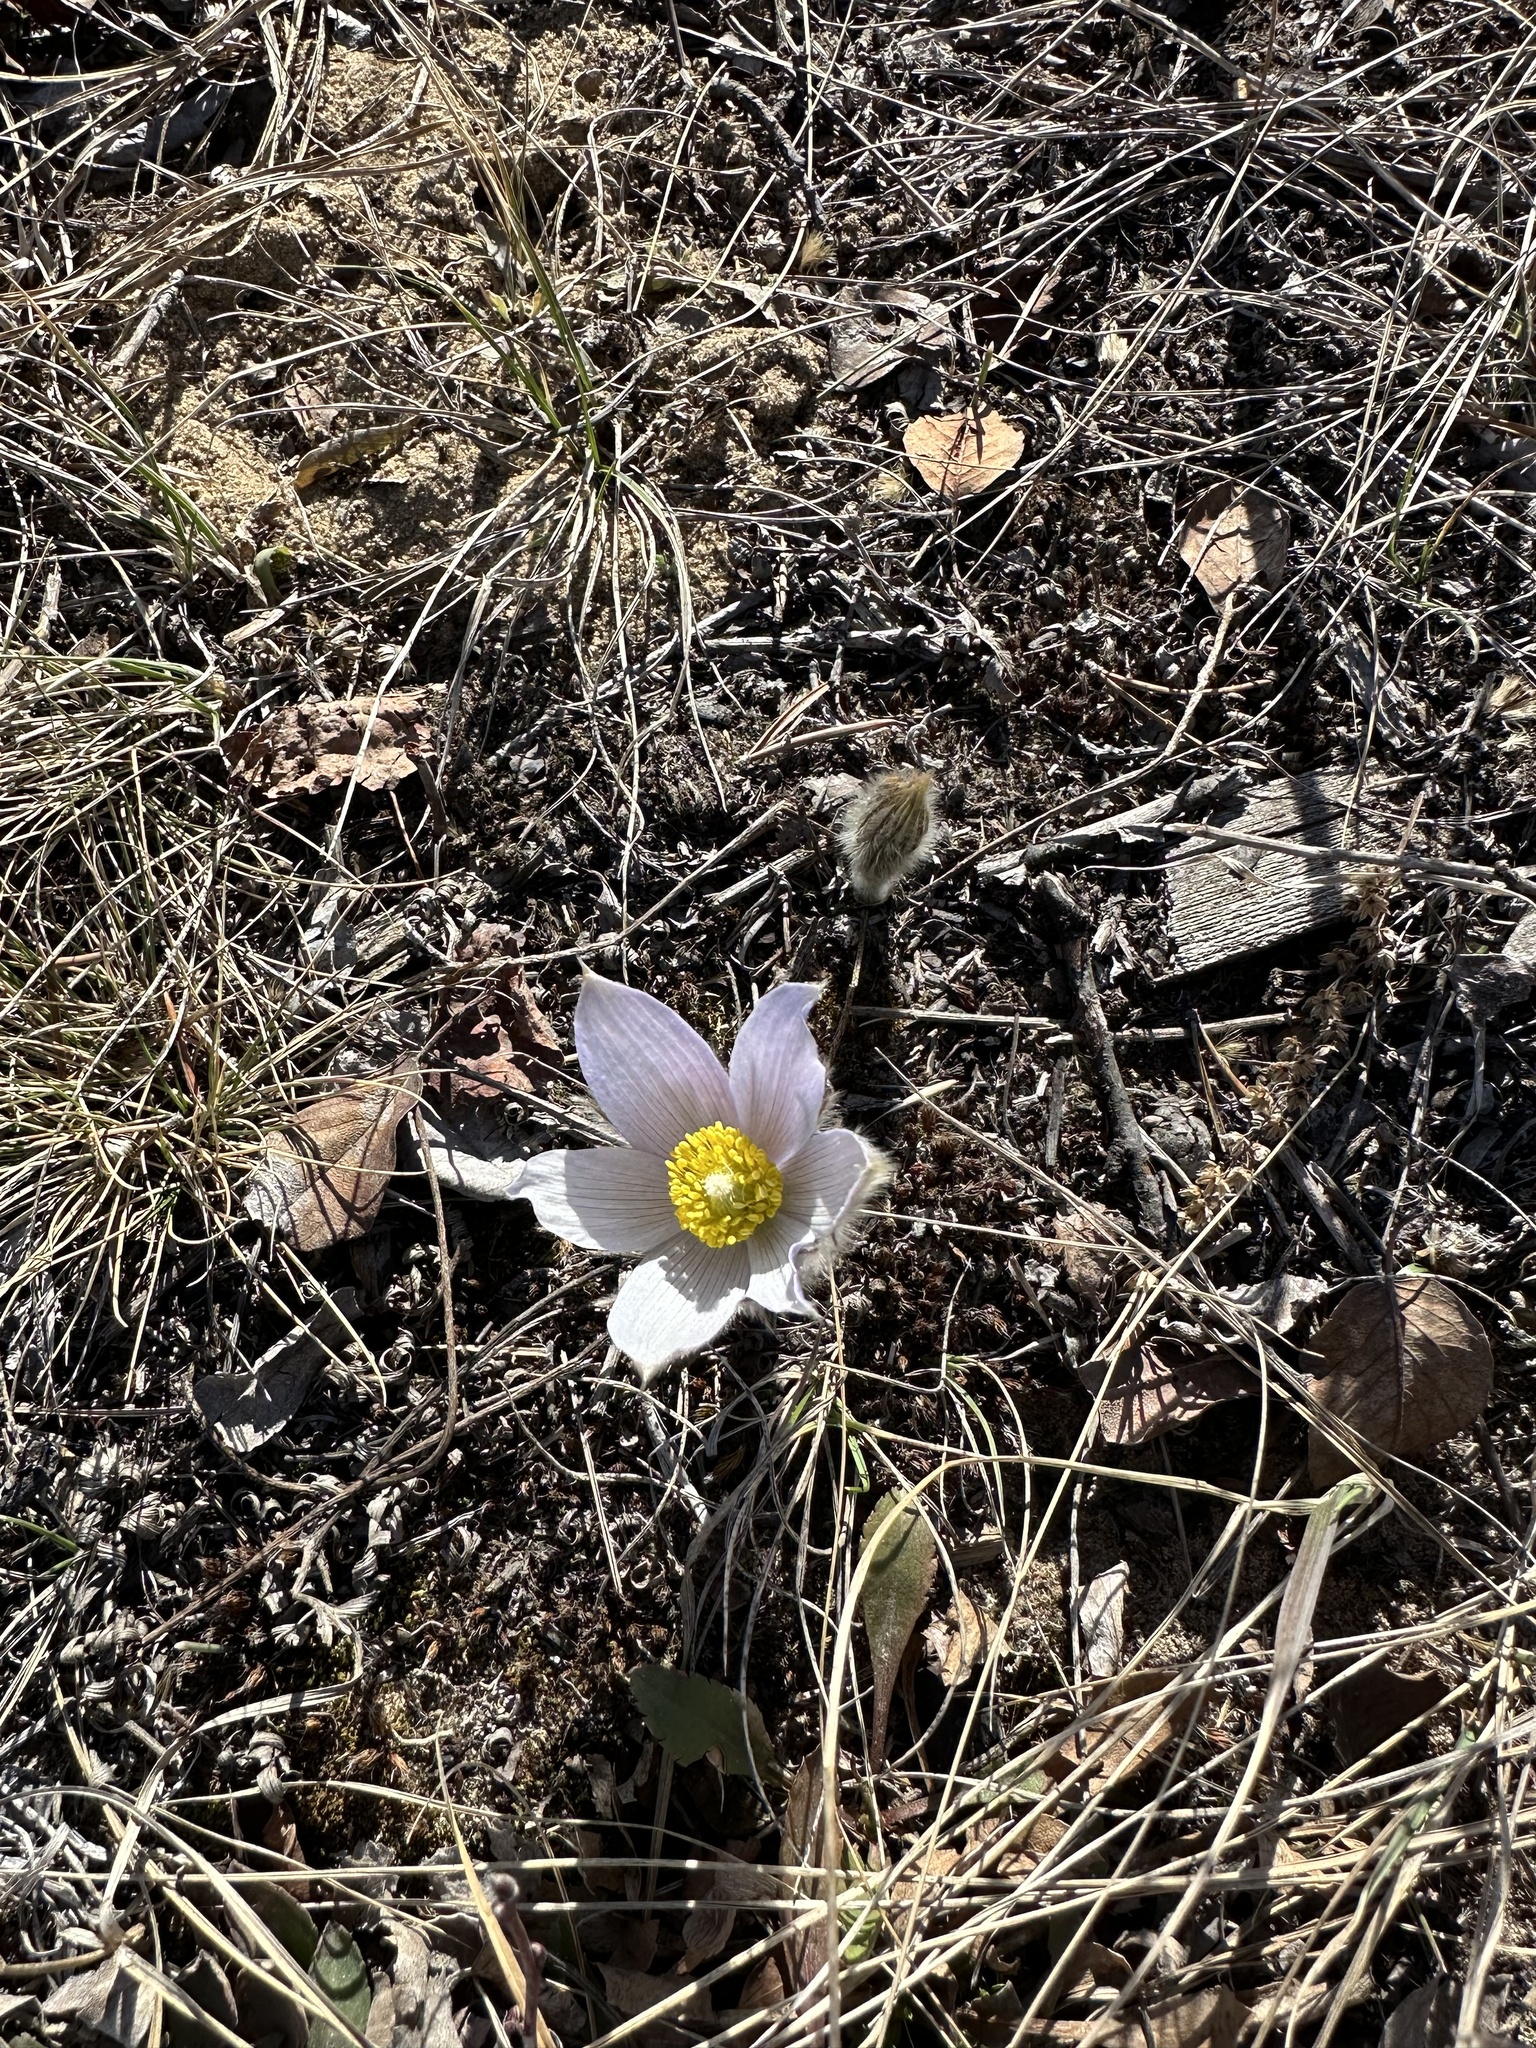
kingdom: Plantae
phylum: Tracheophyta
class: Magnoliopsida
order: Ranunculales
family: Ranunculaceae
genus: Pulsatilla
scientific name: Pulsatilla nuttalliana
